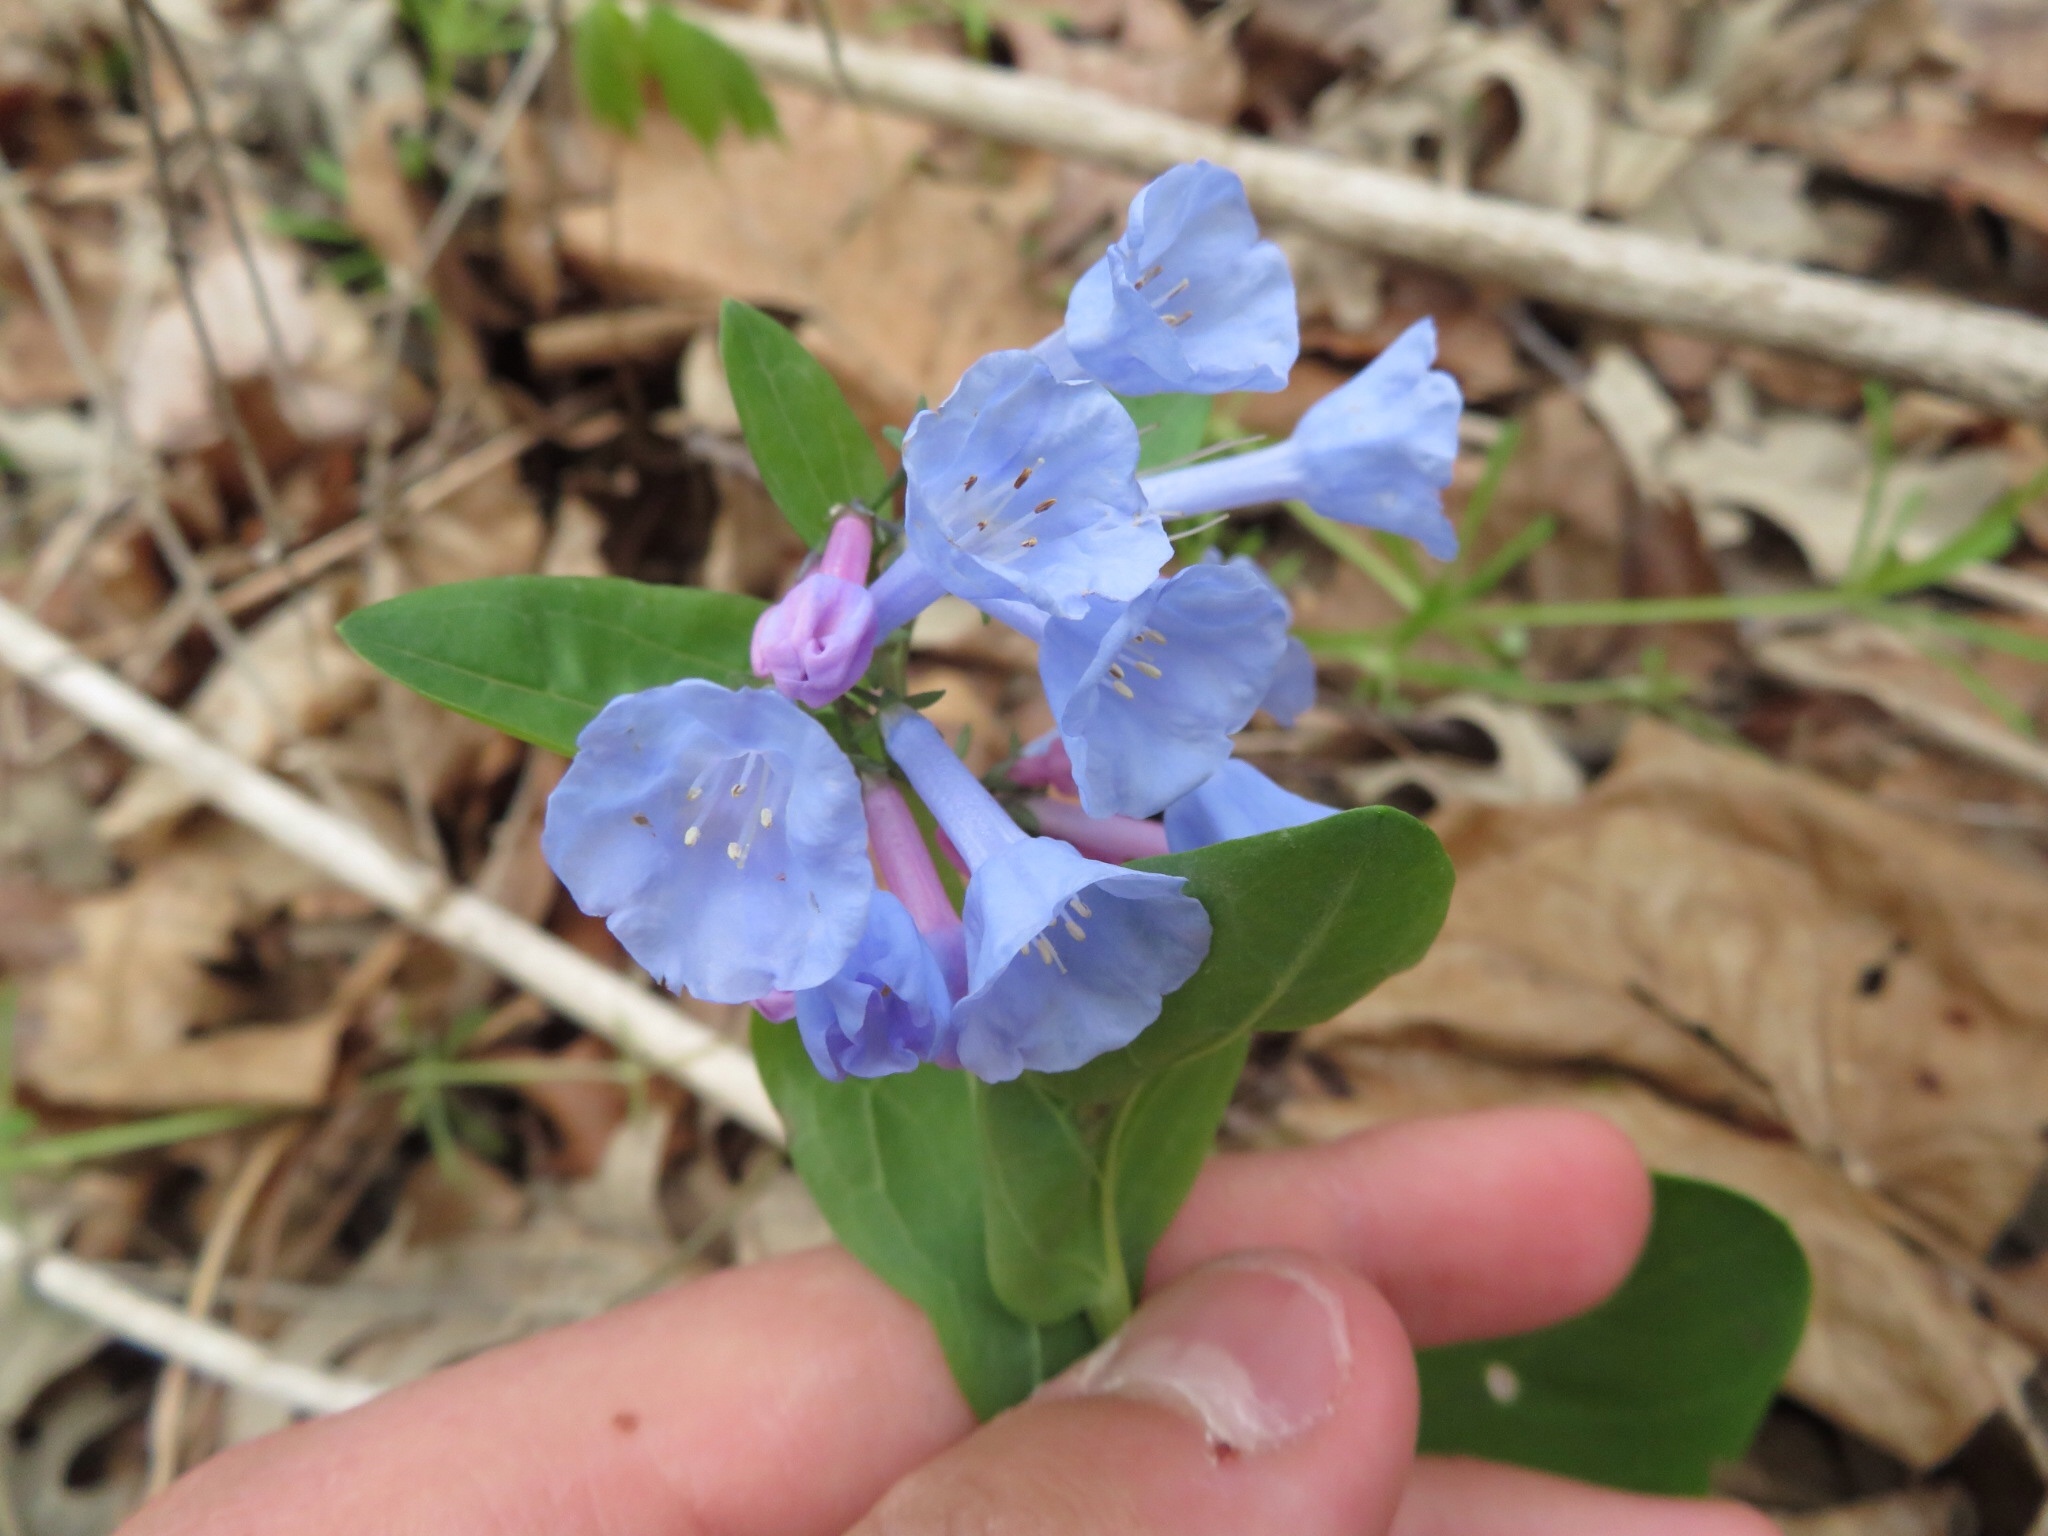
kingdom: Plantae
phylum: Tracheophyta
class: Magnoliopsida
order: Boraginales
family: Boraginaceae
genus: Mertensia
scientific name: Mertensia virginica
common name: Virginia bluebells
